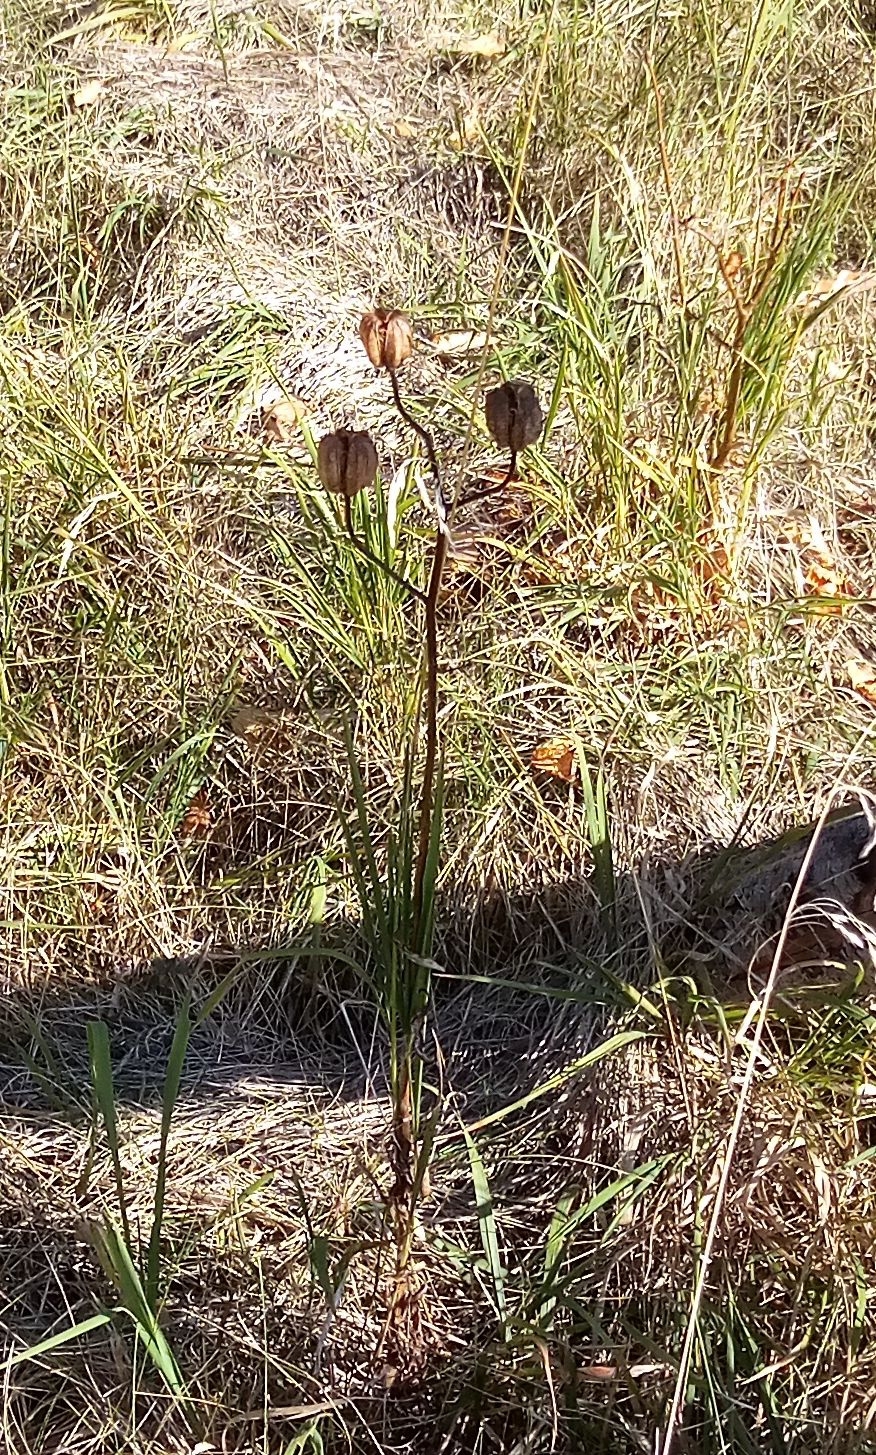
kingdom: Plantae
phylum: Tracheophyta
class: Liliopsida
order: Liliales
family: Liliaceae
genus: Lilium
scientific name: Lilium martagon
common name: Martagon lily
